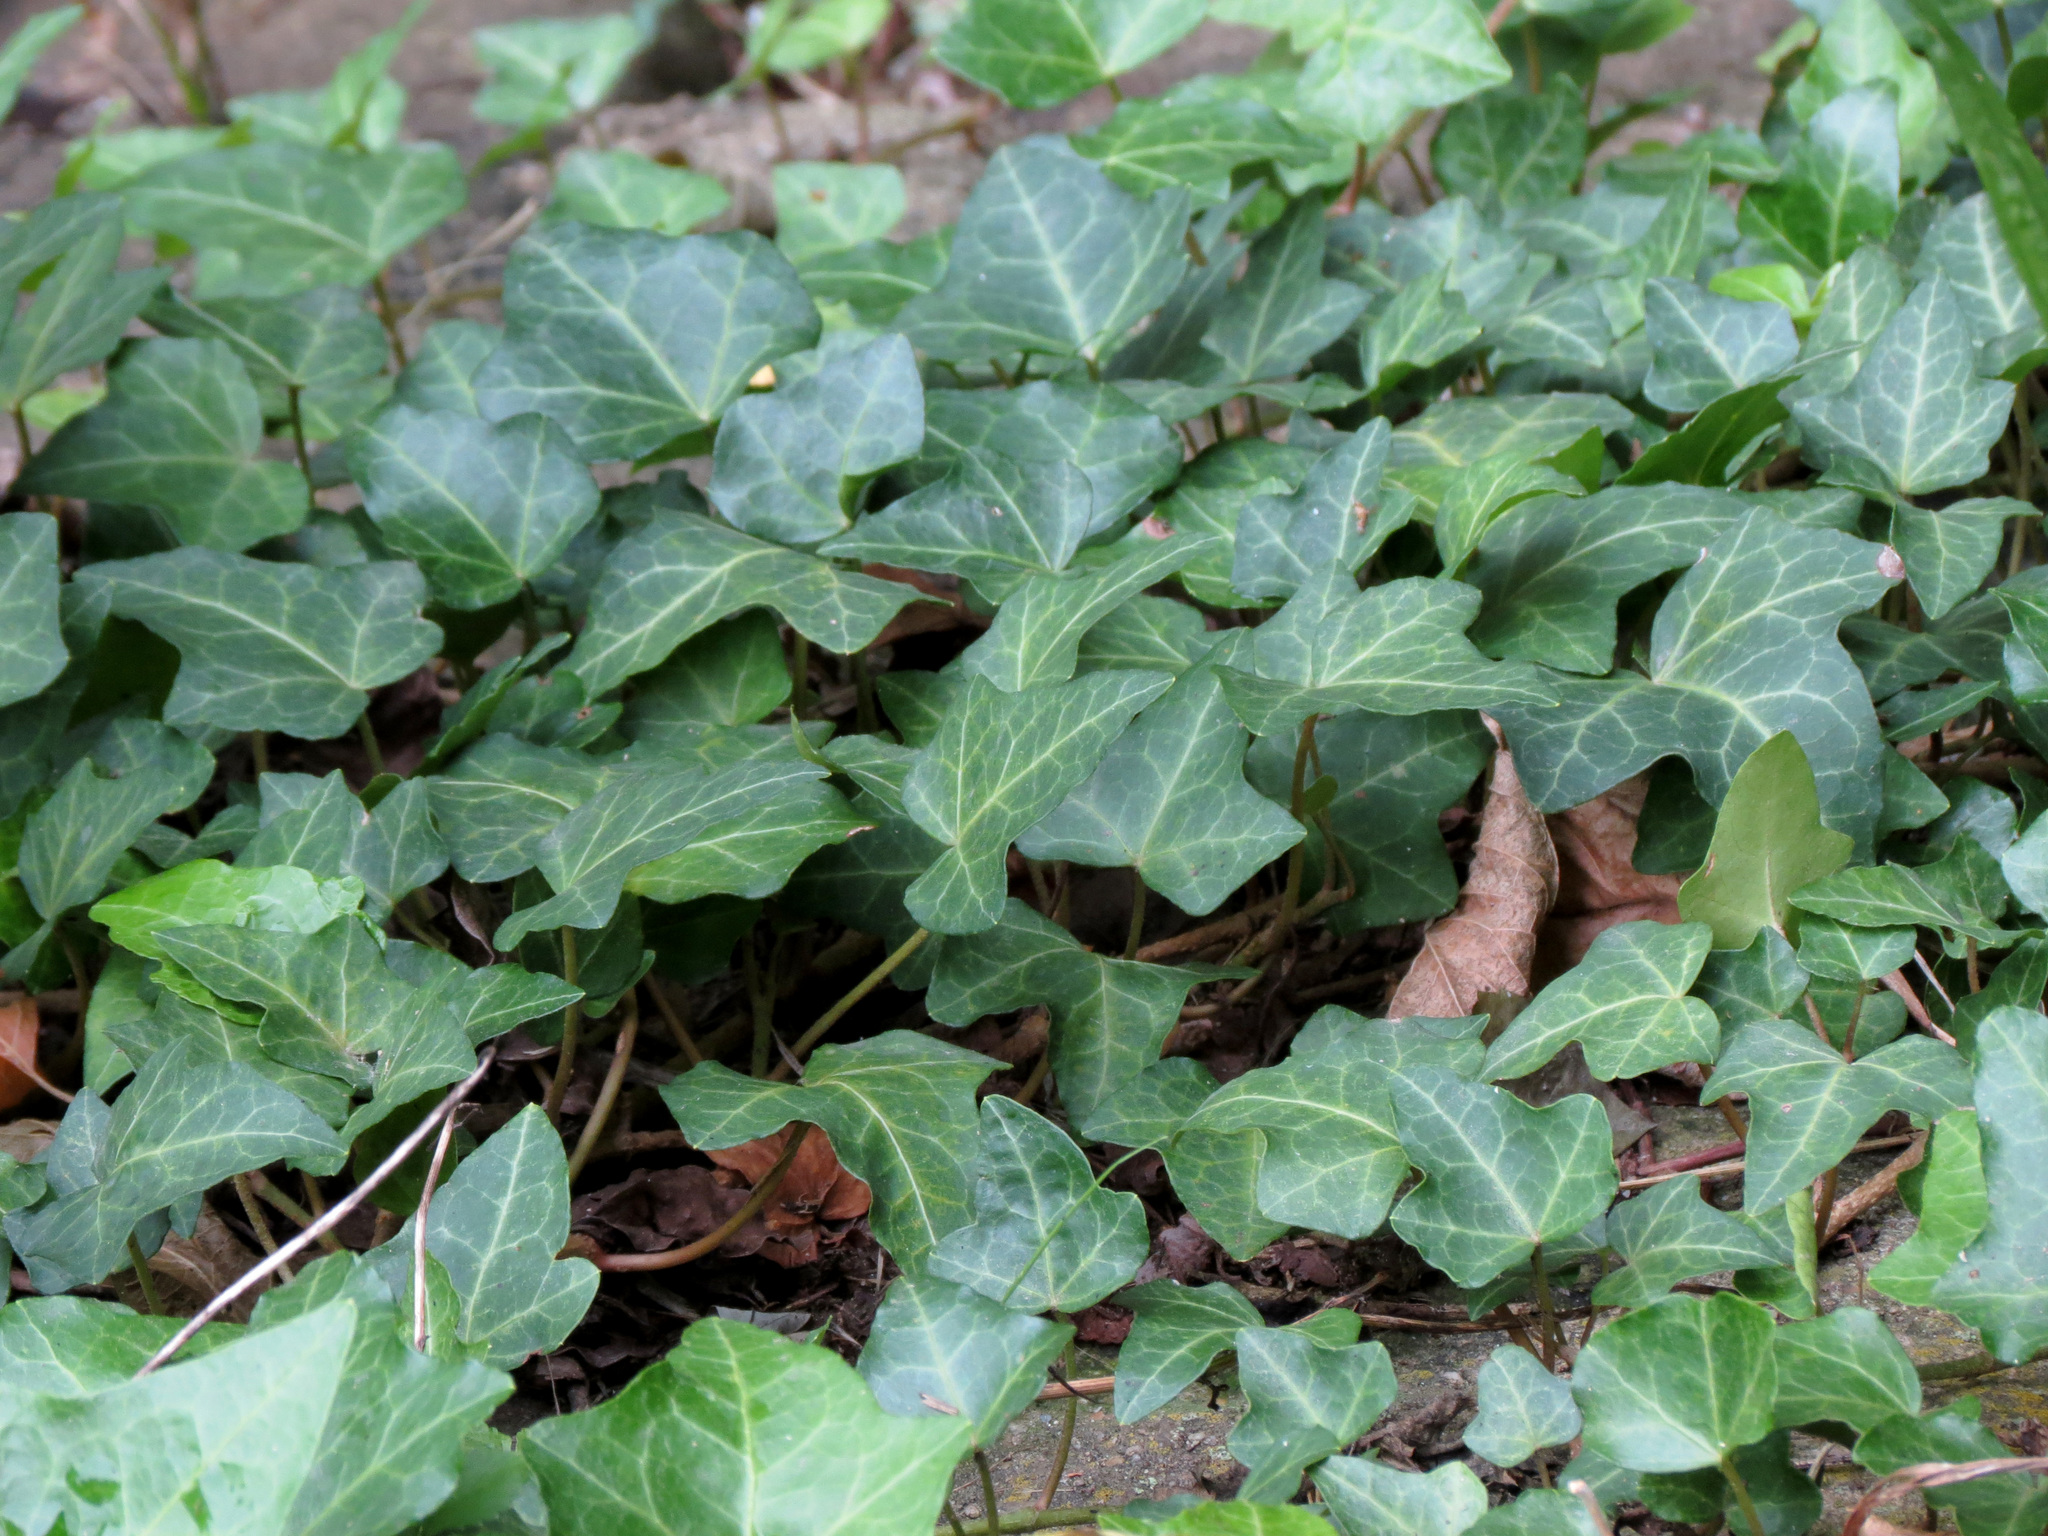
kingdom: Plantae
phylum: Tracheophyta
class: Magnoliopsida
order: Apiales
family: Araliaceae
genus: Hedera
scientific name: Hedera helix
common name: Ivy
